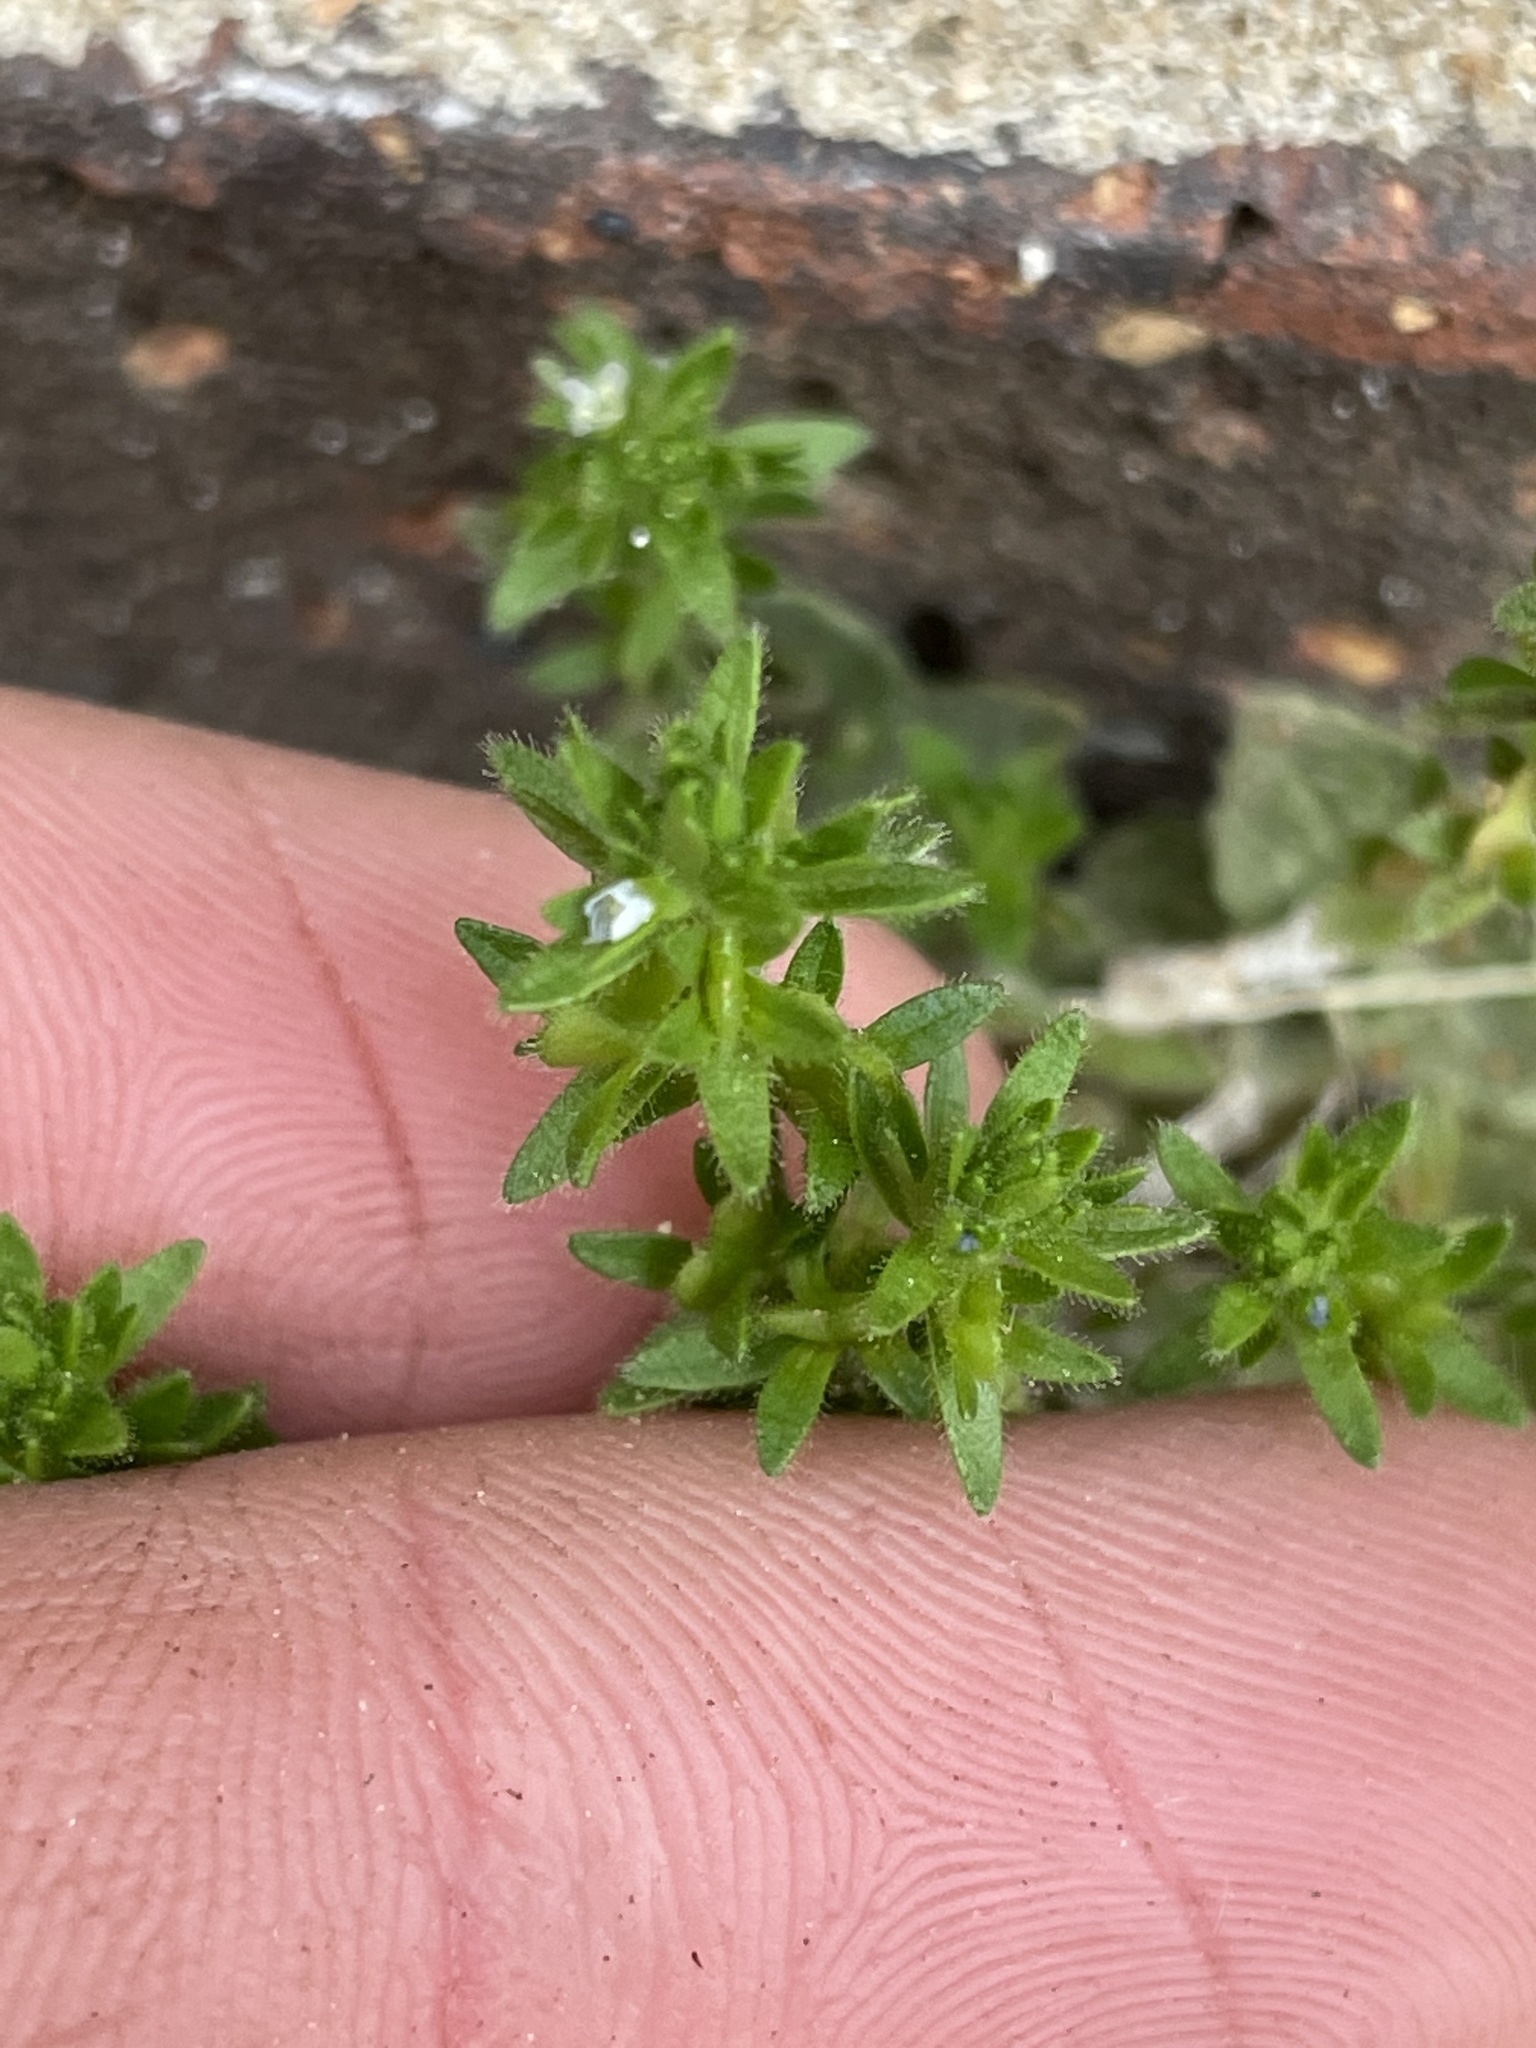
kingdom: Plantae
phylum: Tracheophyta
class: Magnoliopsida
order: Lamiales
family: Plantaginaceae
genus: Veronica
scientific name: Veronica arvensis
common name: Corn speedwell
